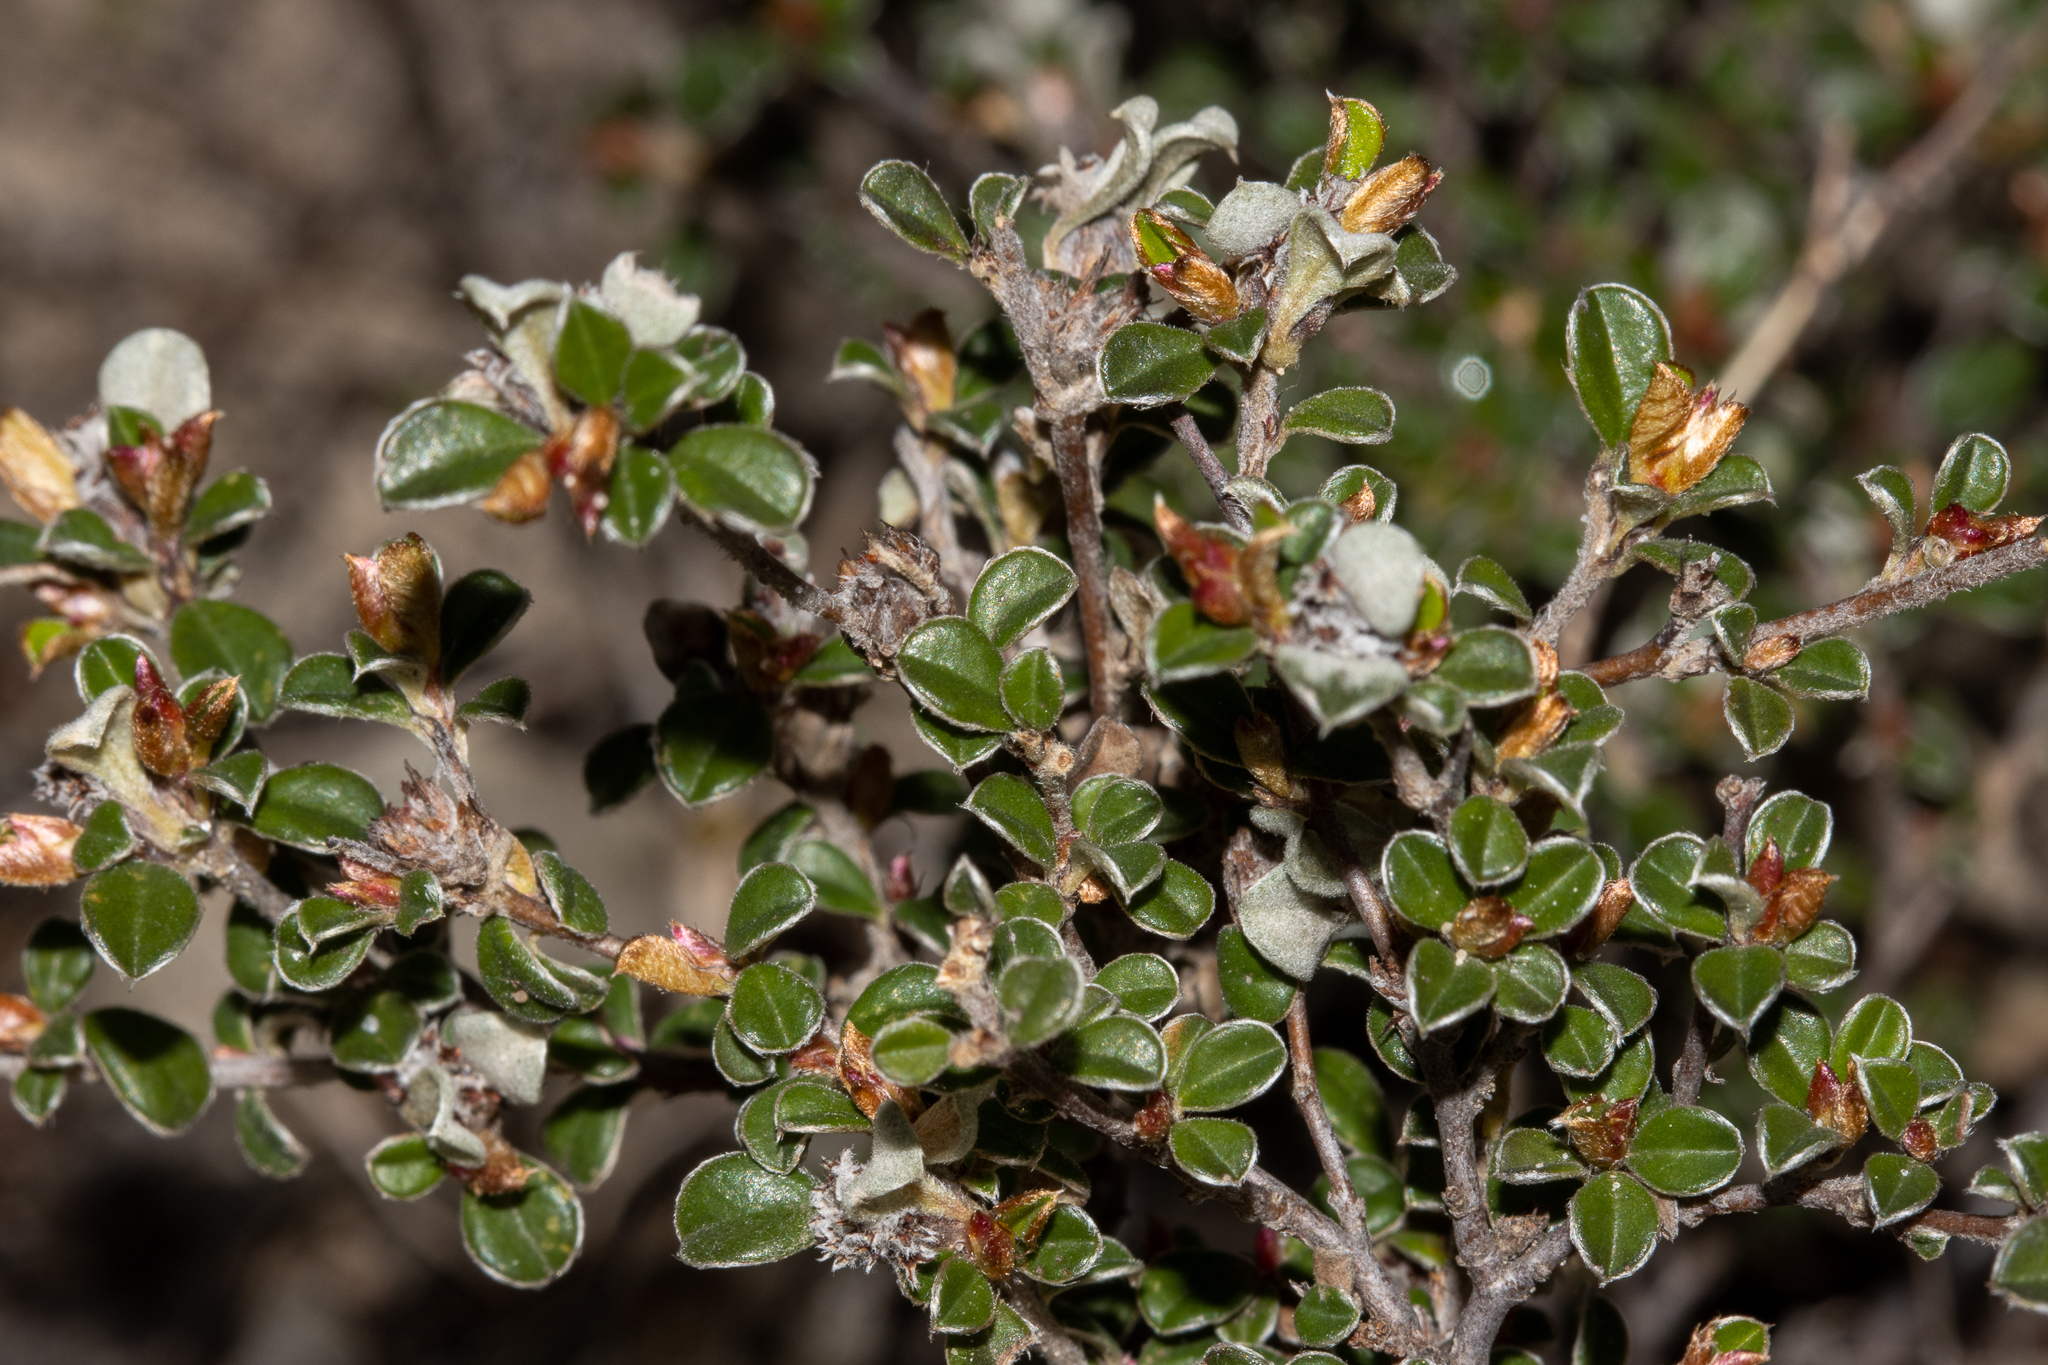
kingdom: Plantae
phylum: Tracheophyta
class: Magnoliopsida
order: Rosales
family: Rhamnaceae
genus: Cryptandra
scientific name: Cryptandra leucophracta
